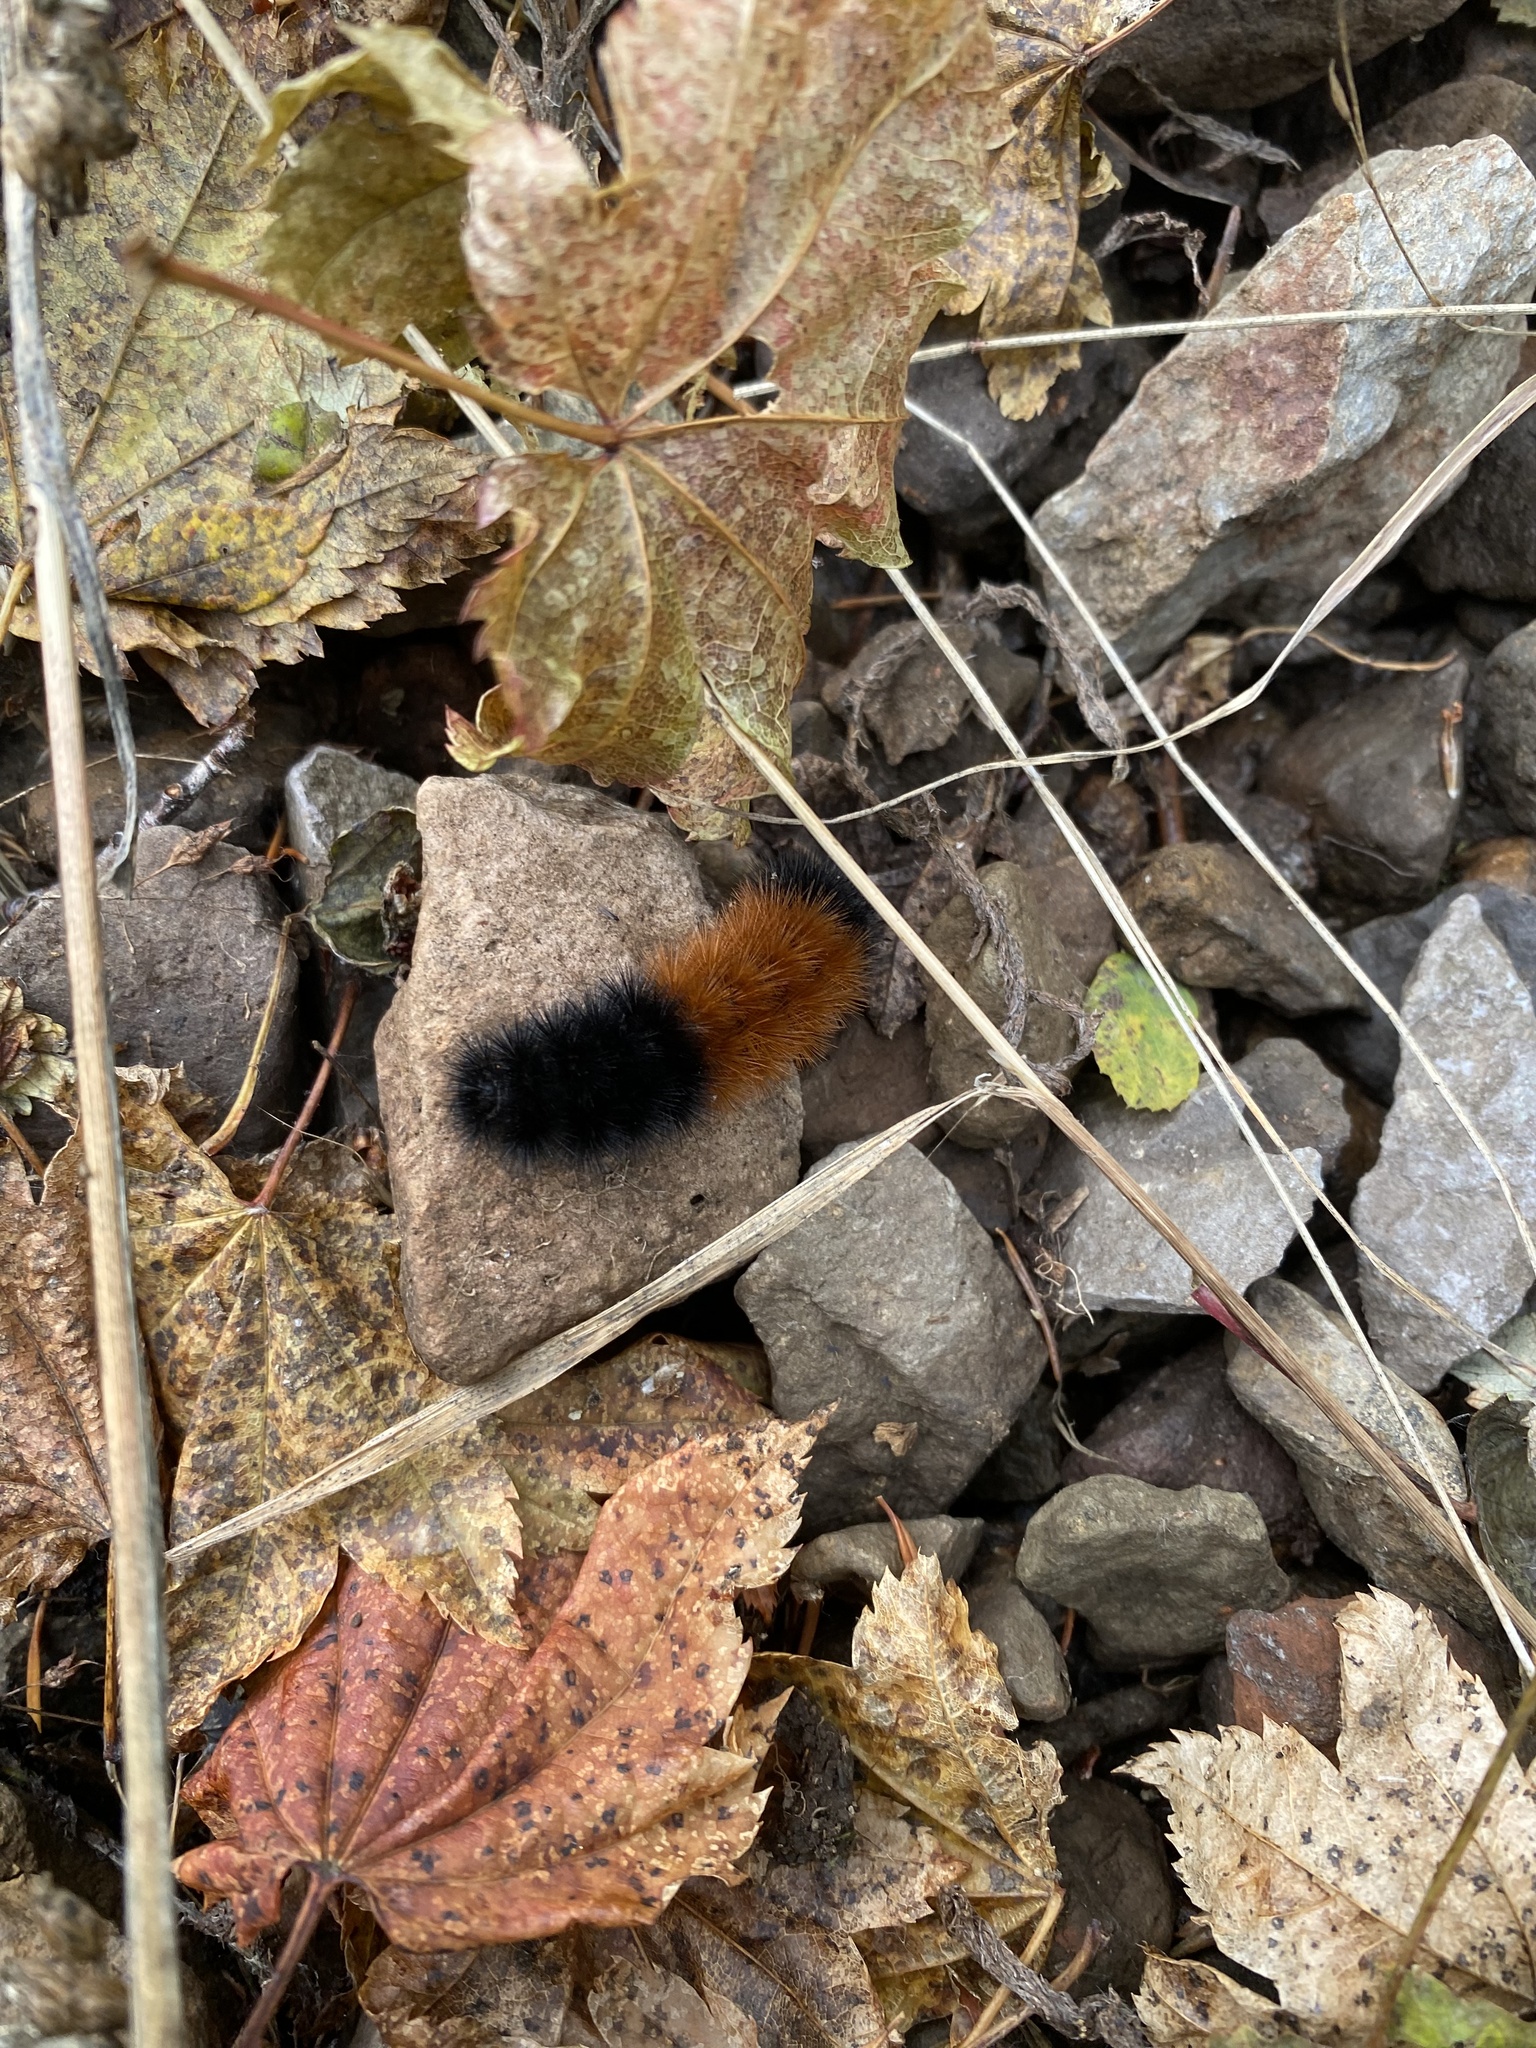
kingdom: Animalia
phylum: Arthropoda
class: Insecta
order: Lepidoptera
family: Erebidae
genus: Pyrrharctia
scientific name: Pyrrharctia isabella
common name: Isabella tiger moth
